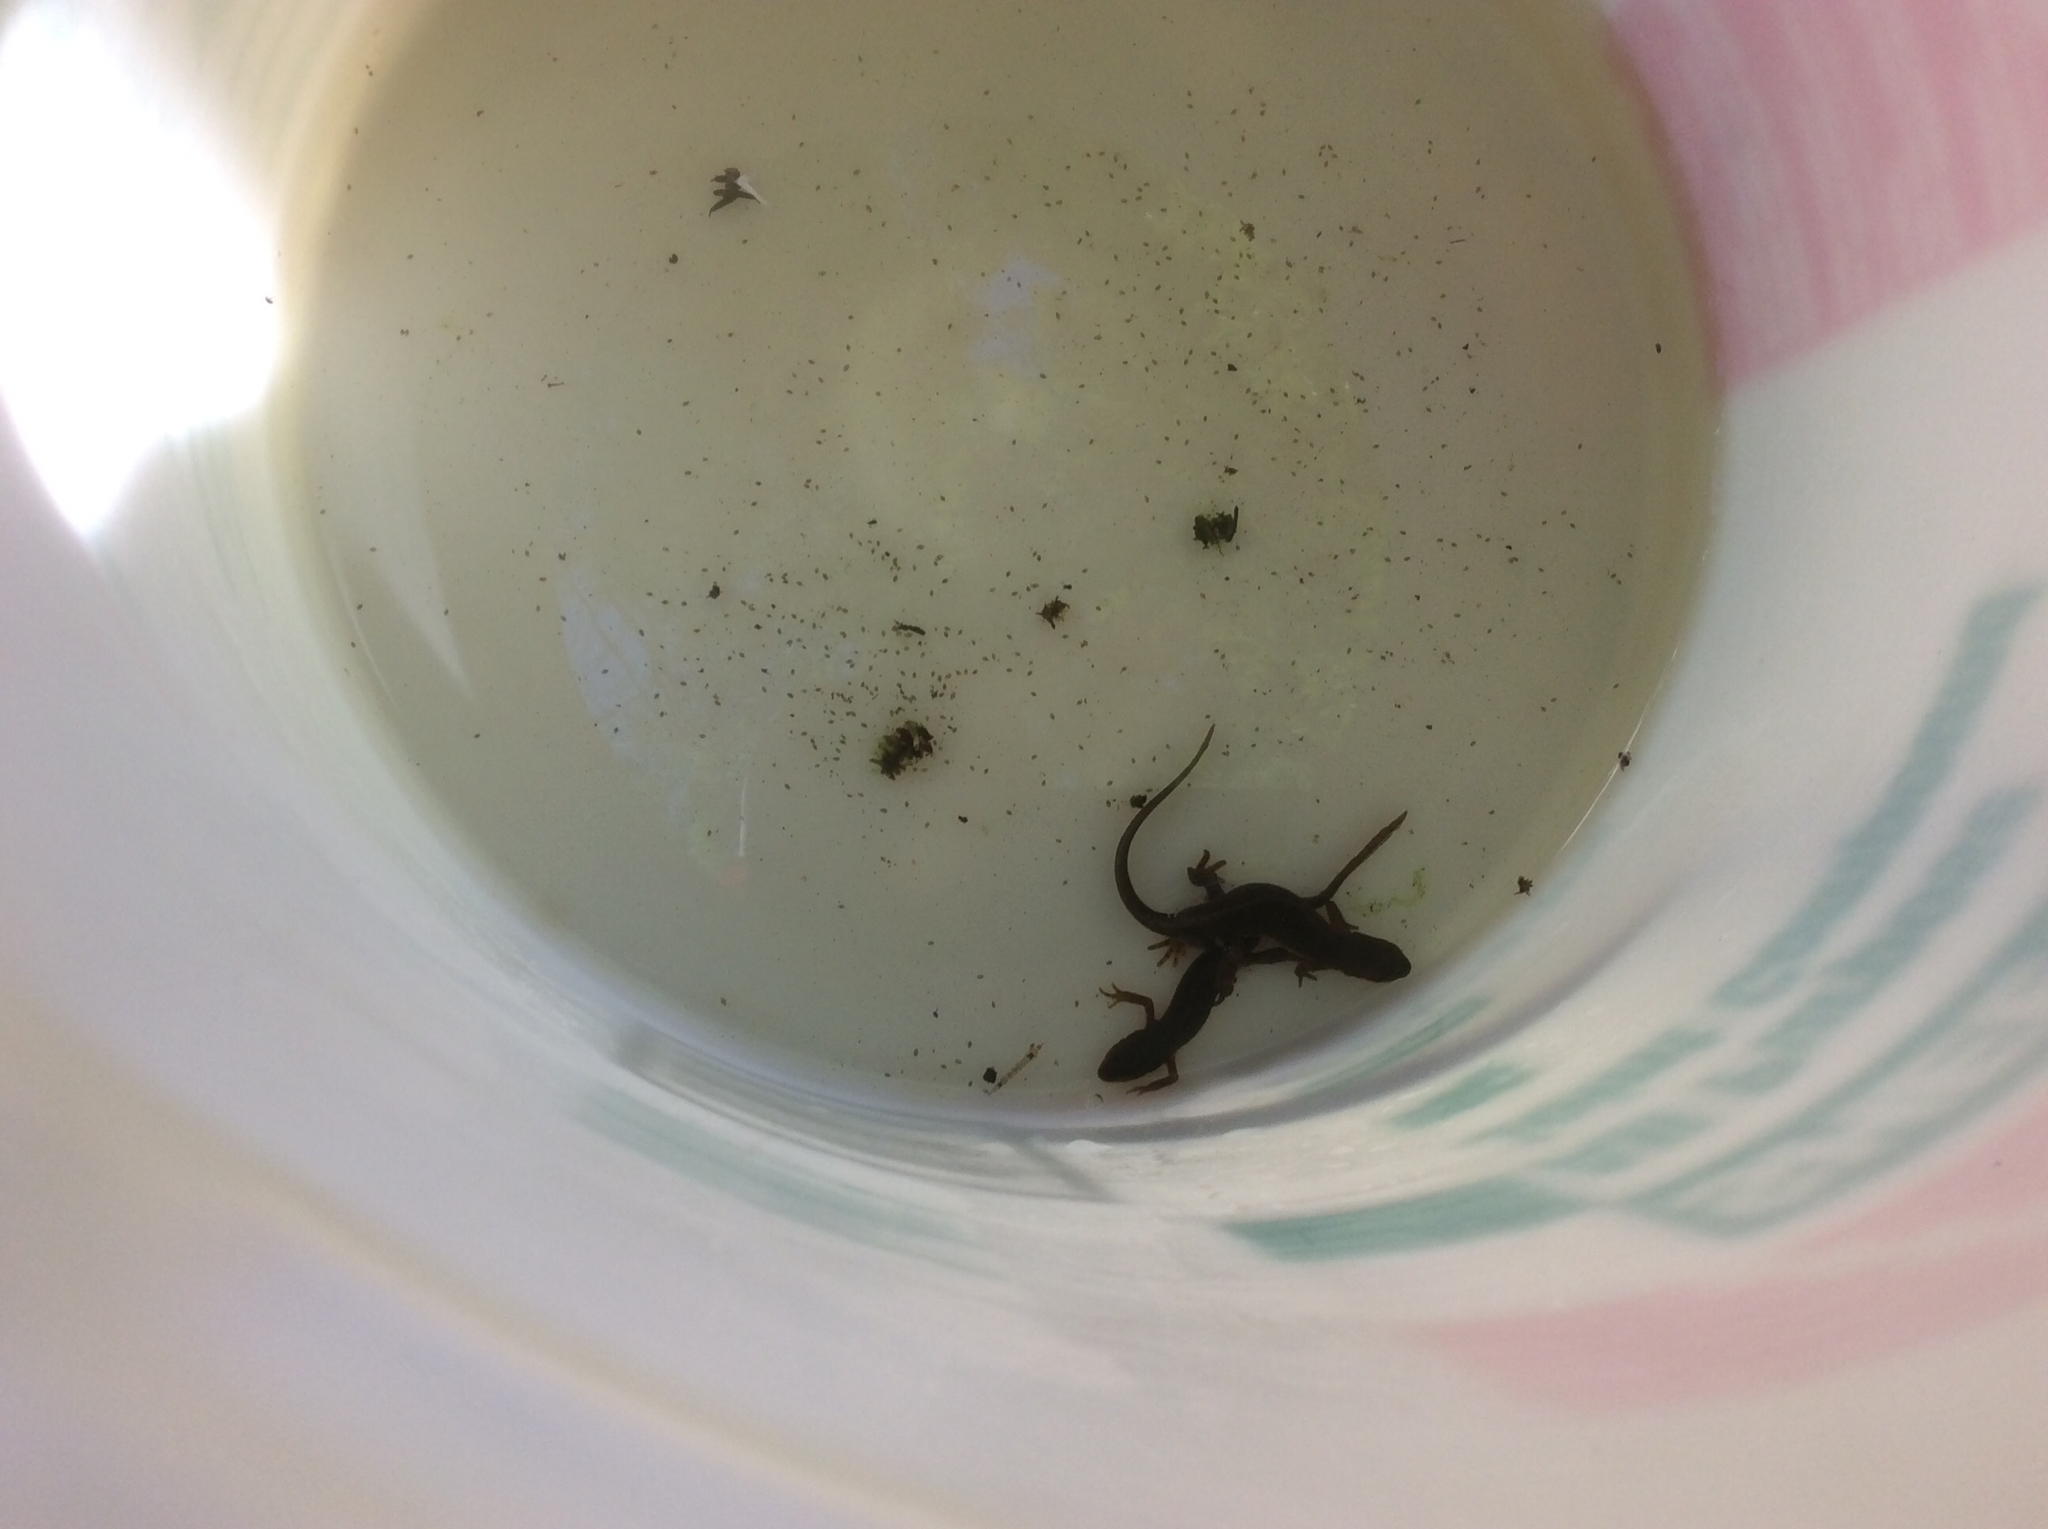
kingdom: Animalia
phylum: Chordata
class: Amphibia
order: Caudata
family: Salamandridae
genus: Notophthalmus
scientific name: Notophthalmus viridescens
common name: Eastern newt
